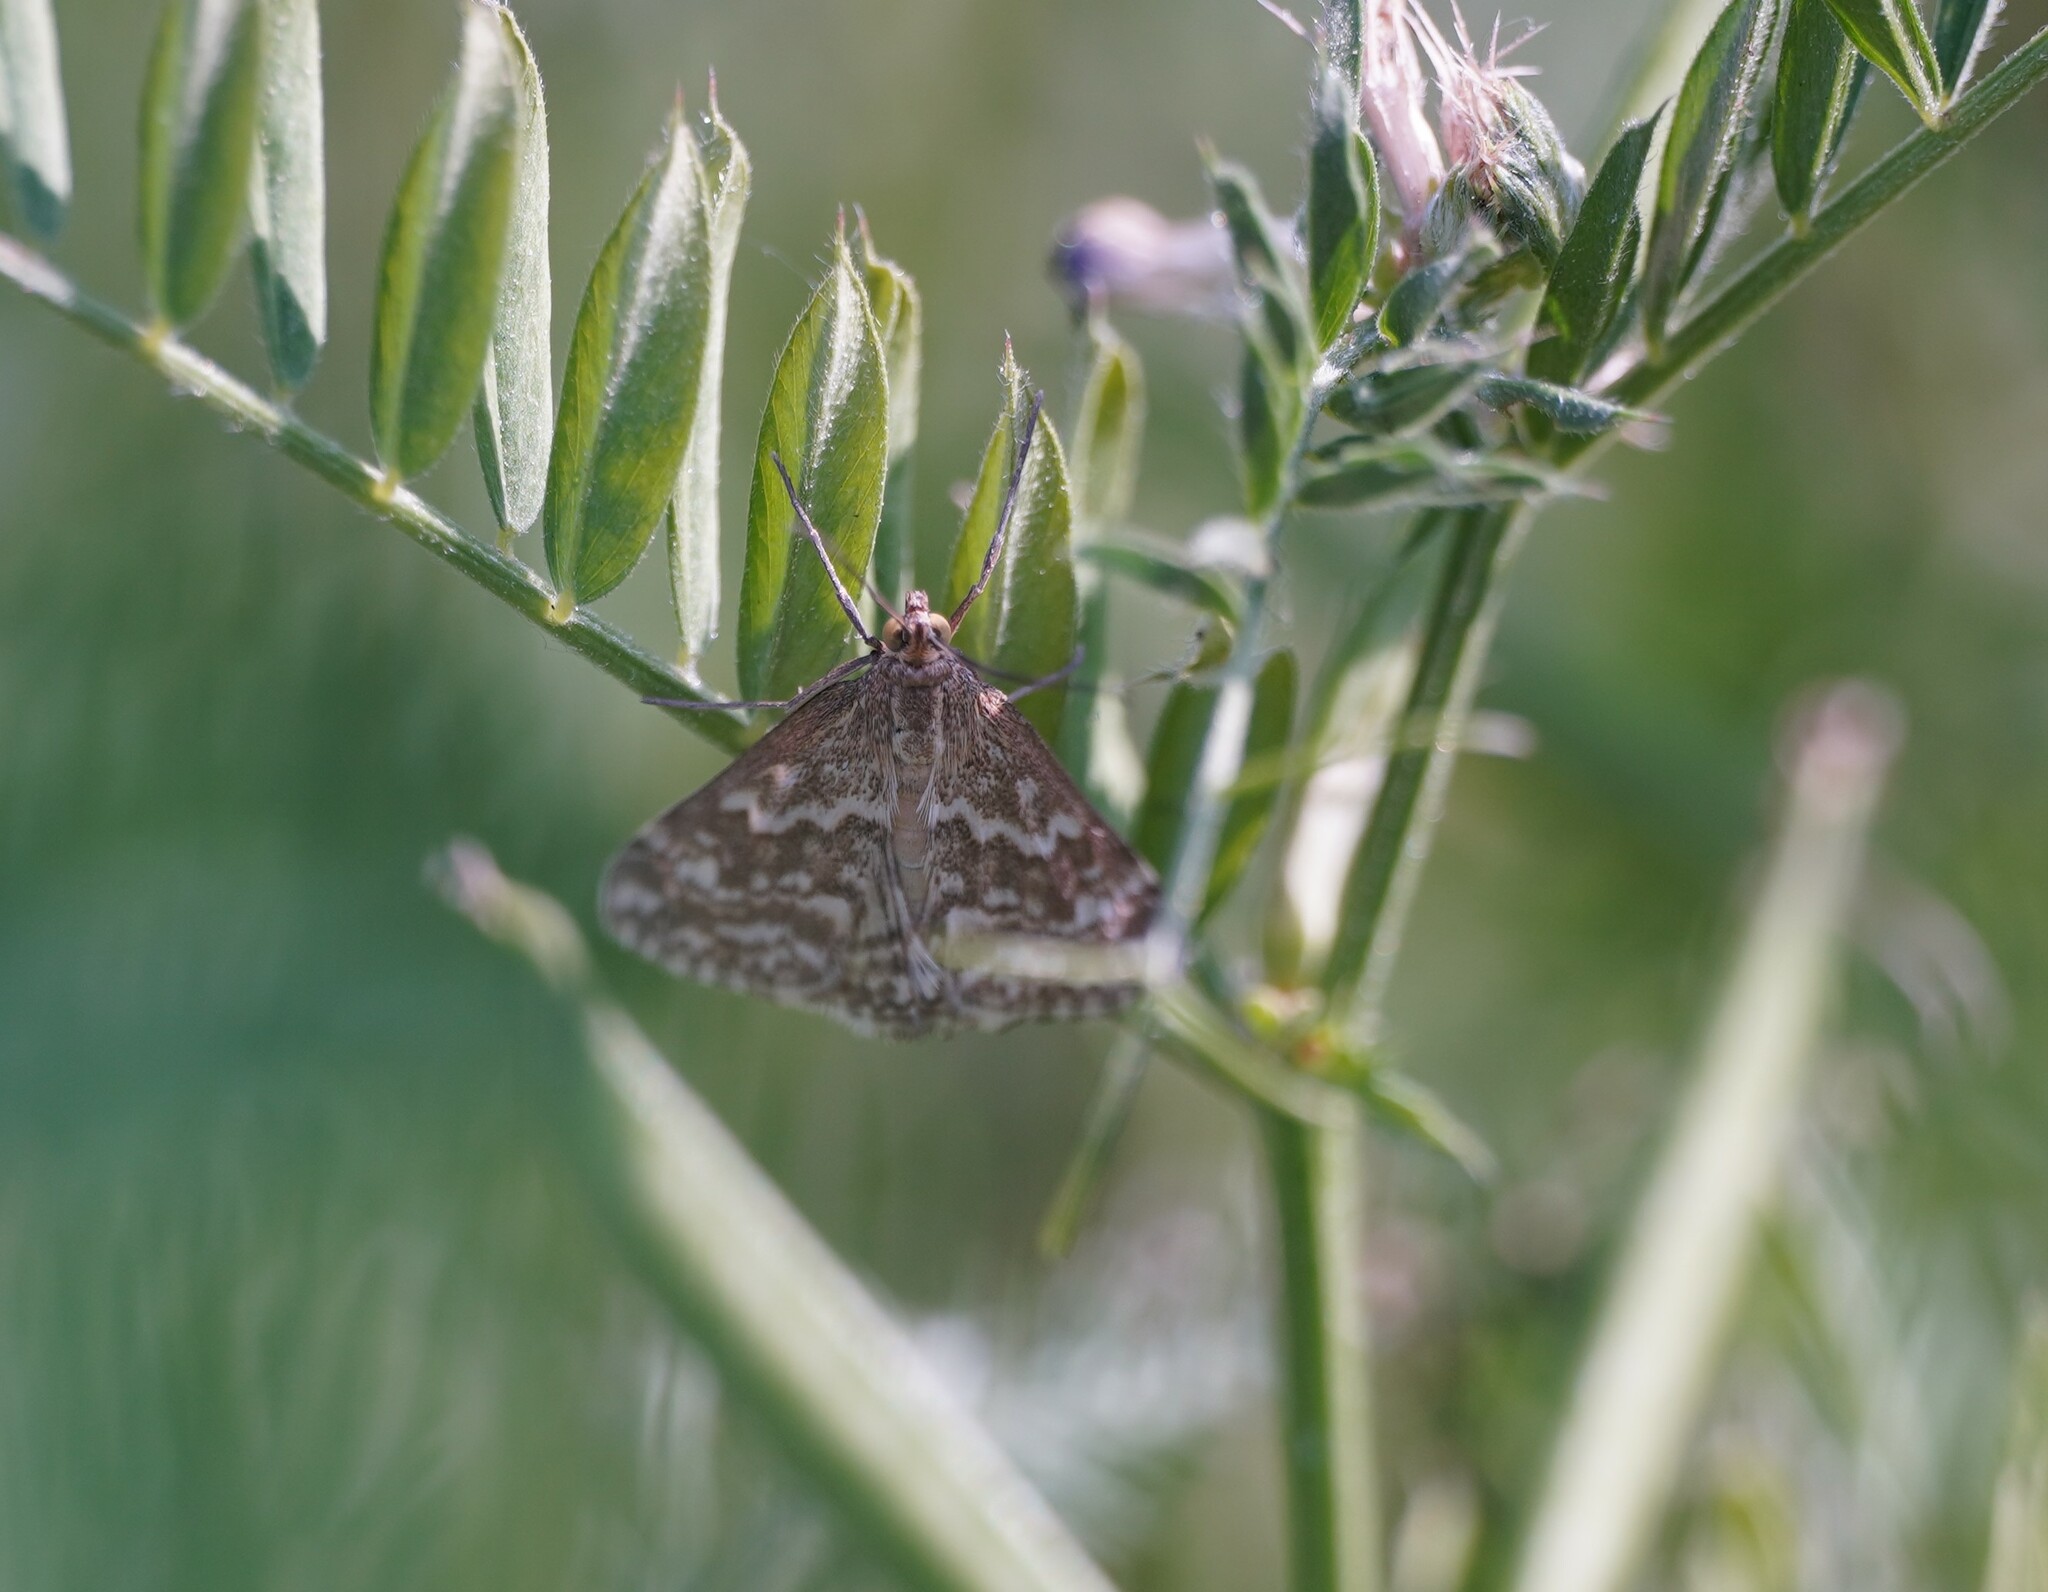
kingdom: Animalia
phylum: Arthropoda
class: Insecta
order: Lepidoptera
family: Crambidae
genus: Evergestis
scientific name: Evergestis frumentalis
